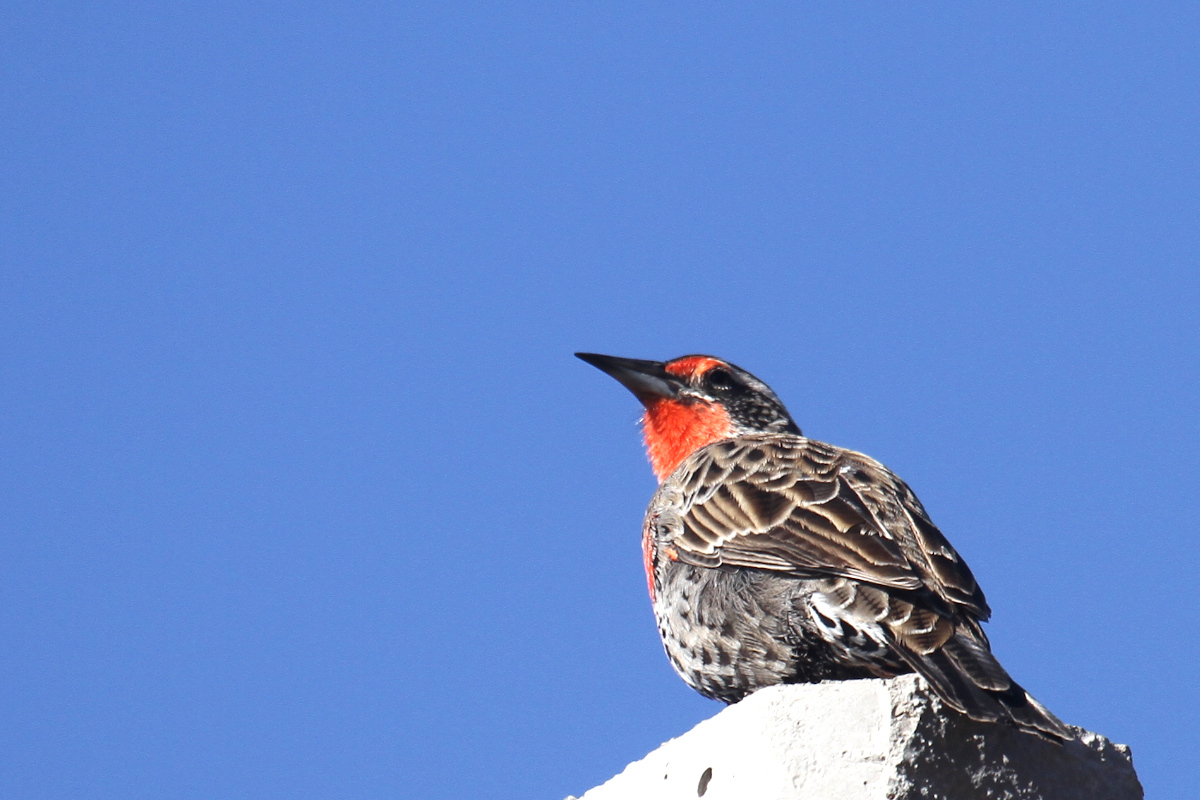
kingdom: Animalia
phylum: Chordata
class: Aves
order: Passeriformes
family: Icteridae
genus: Sturnella
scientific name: Sturnella loyca
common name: Long-tailed meadowlark
